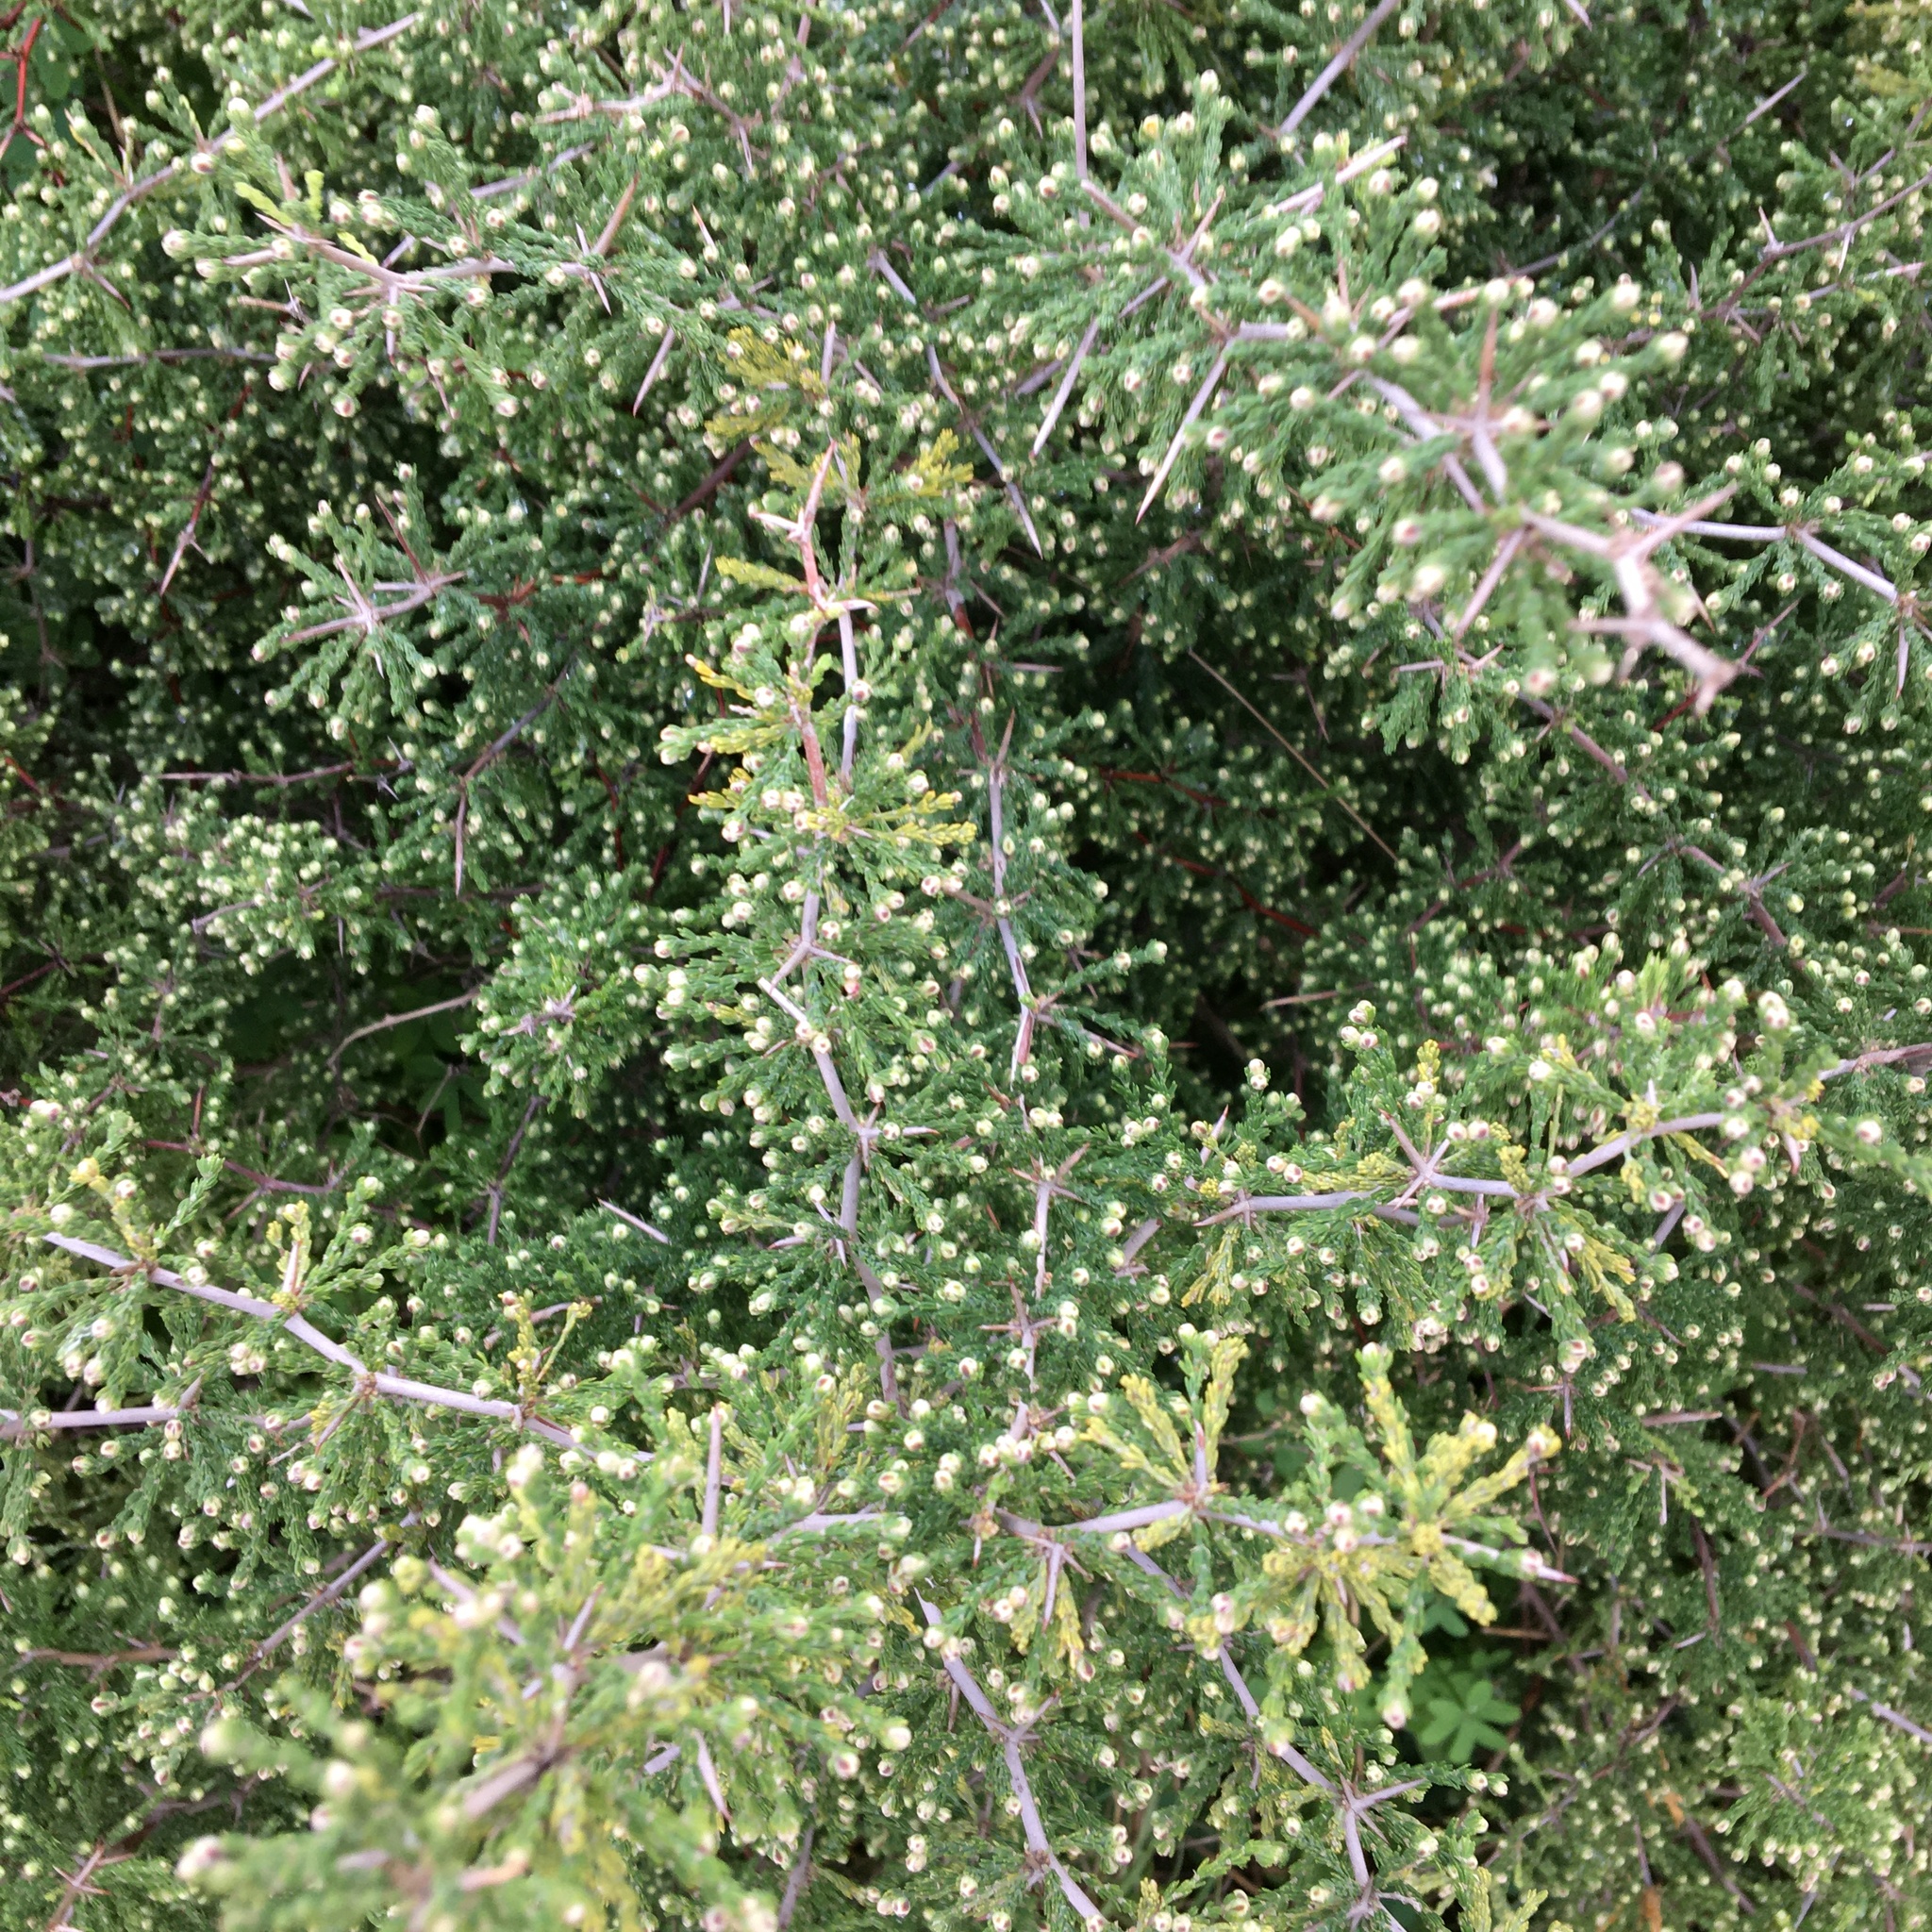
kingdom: Plantae
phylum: Tracheophyta
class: Liliopsida
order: Asparagales
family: Asparagaceae
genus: Asparagus
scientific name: Asparagus capensis
